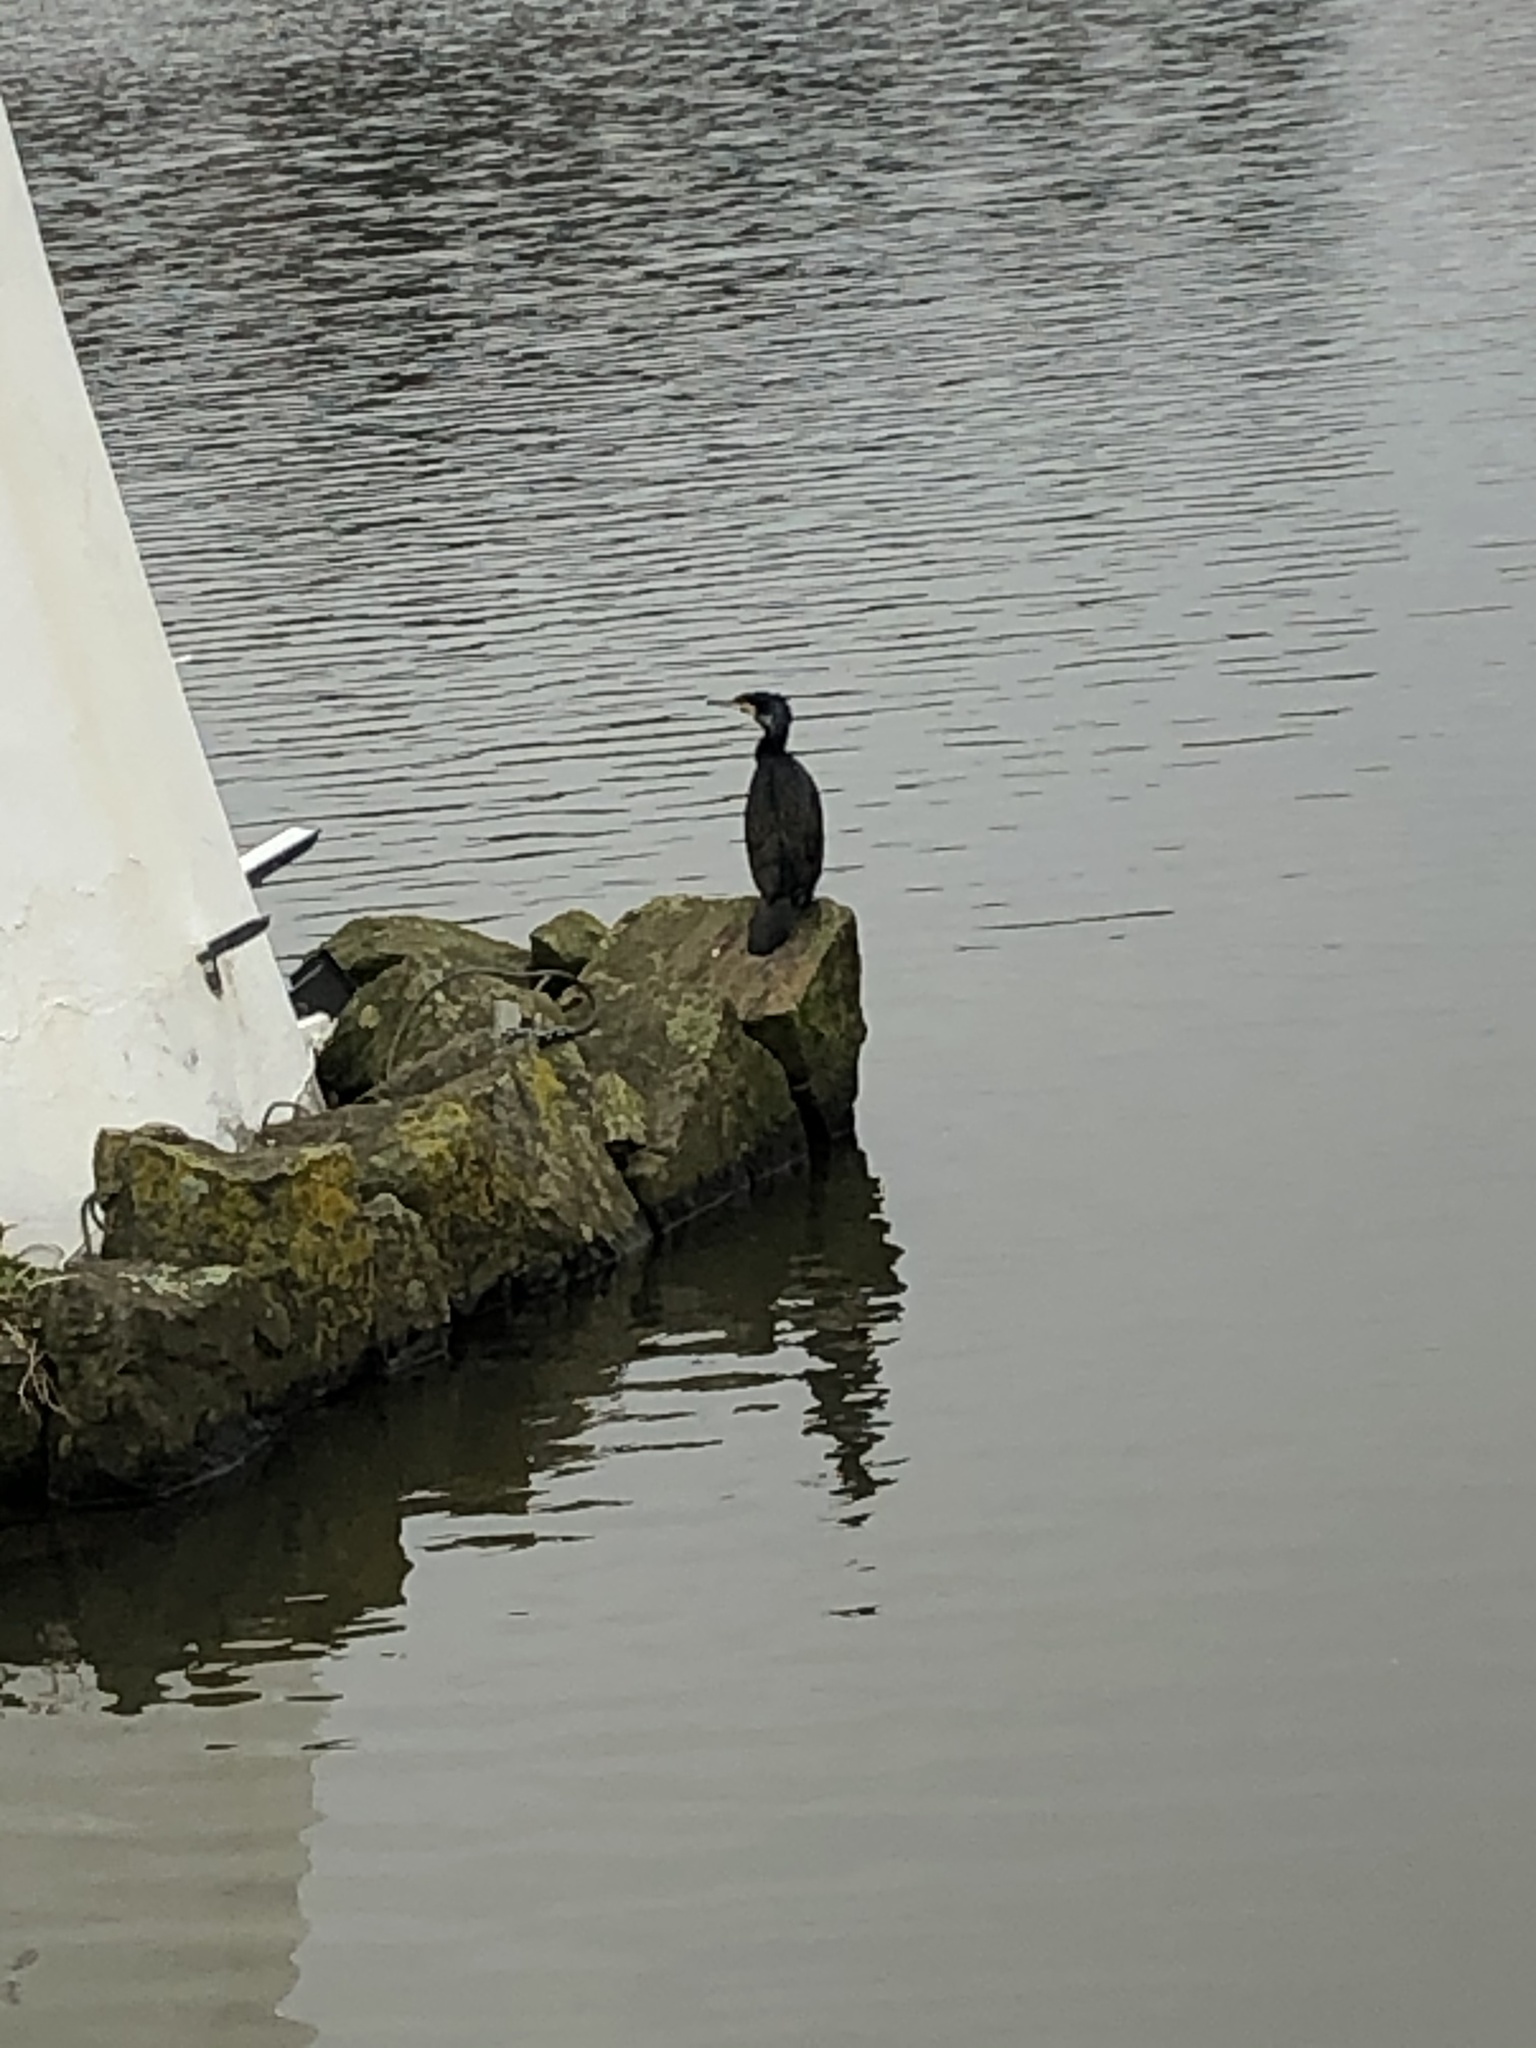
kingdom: Animalia
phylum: Chordata
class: Aves
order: Suliformes
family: Phalacrocoracidae
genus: Phalacrocorax
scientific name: Phalacrocorax carbo
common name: Great cormorant
